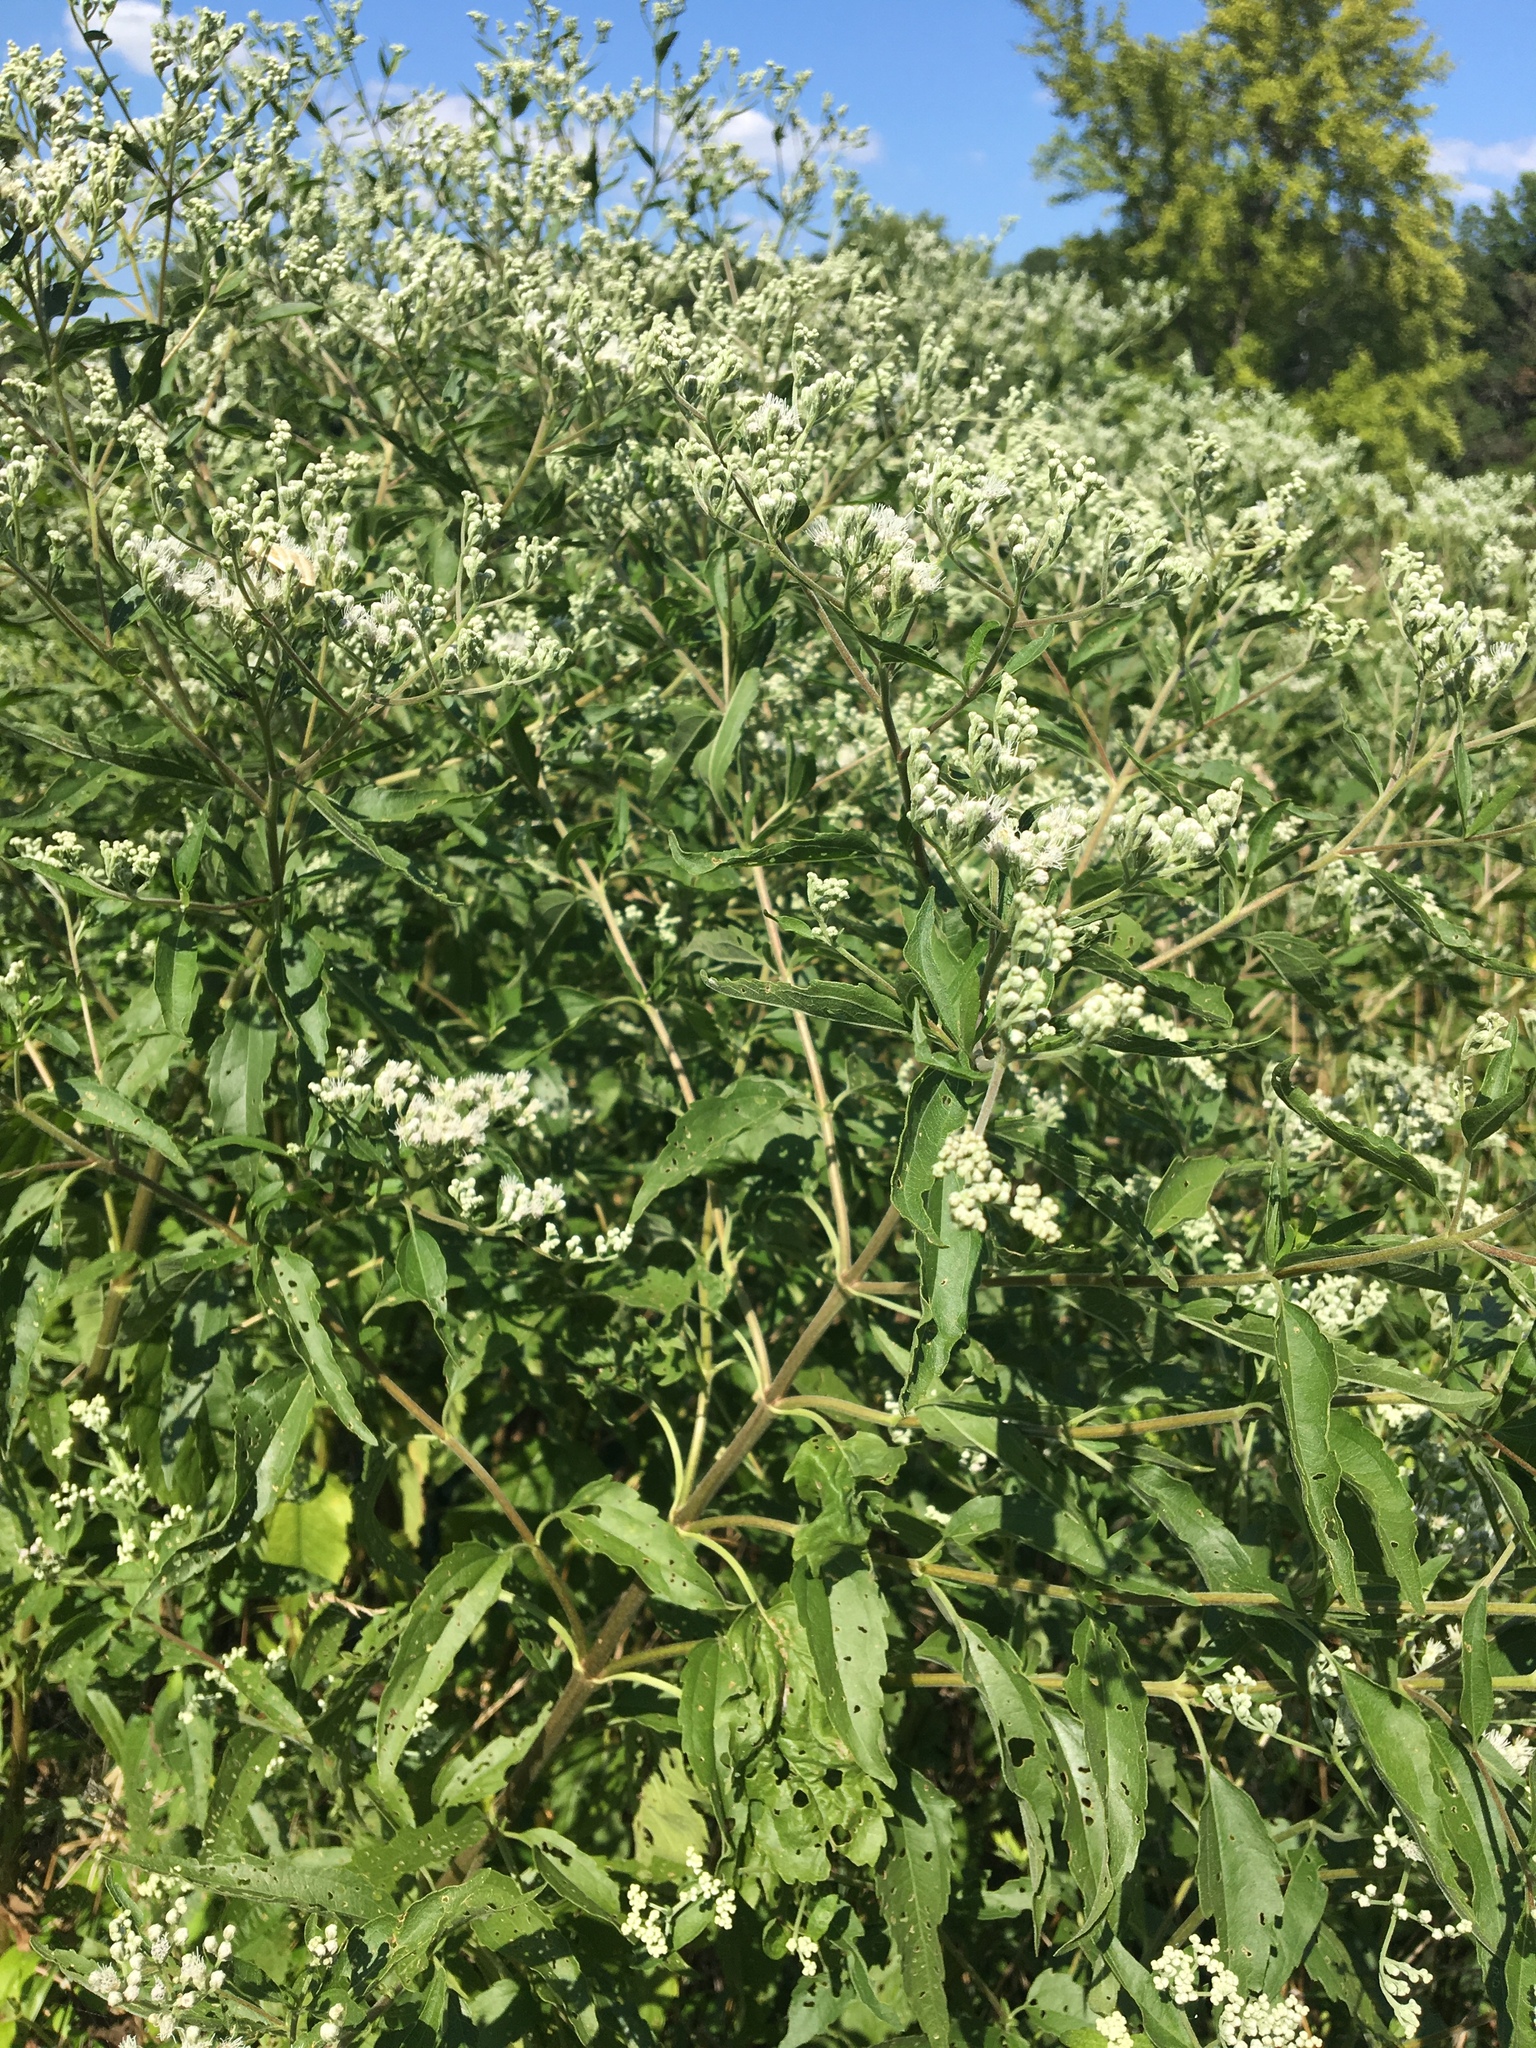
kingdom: Plantae
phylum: Tracheophyta
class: Magnoliopsida
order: Asterales
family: Asteraceae
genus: Eupatorium
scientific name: Eupatorium serotinum
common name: Late boneset
